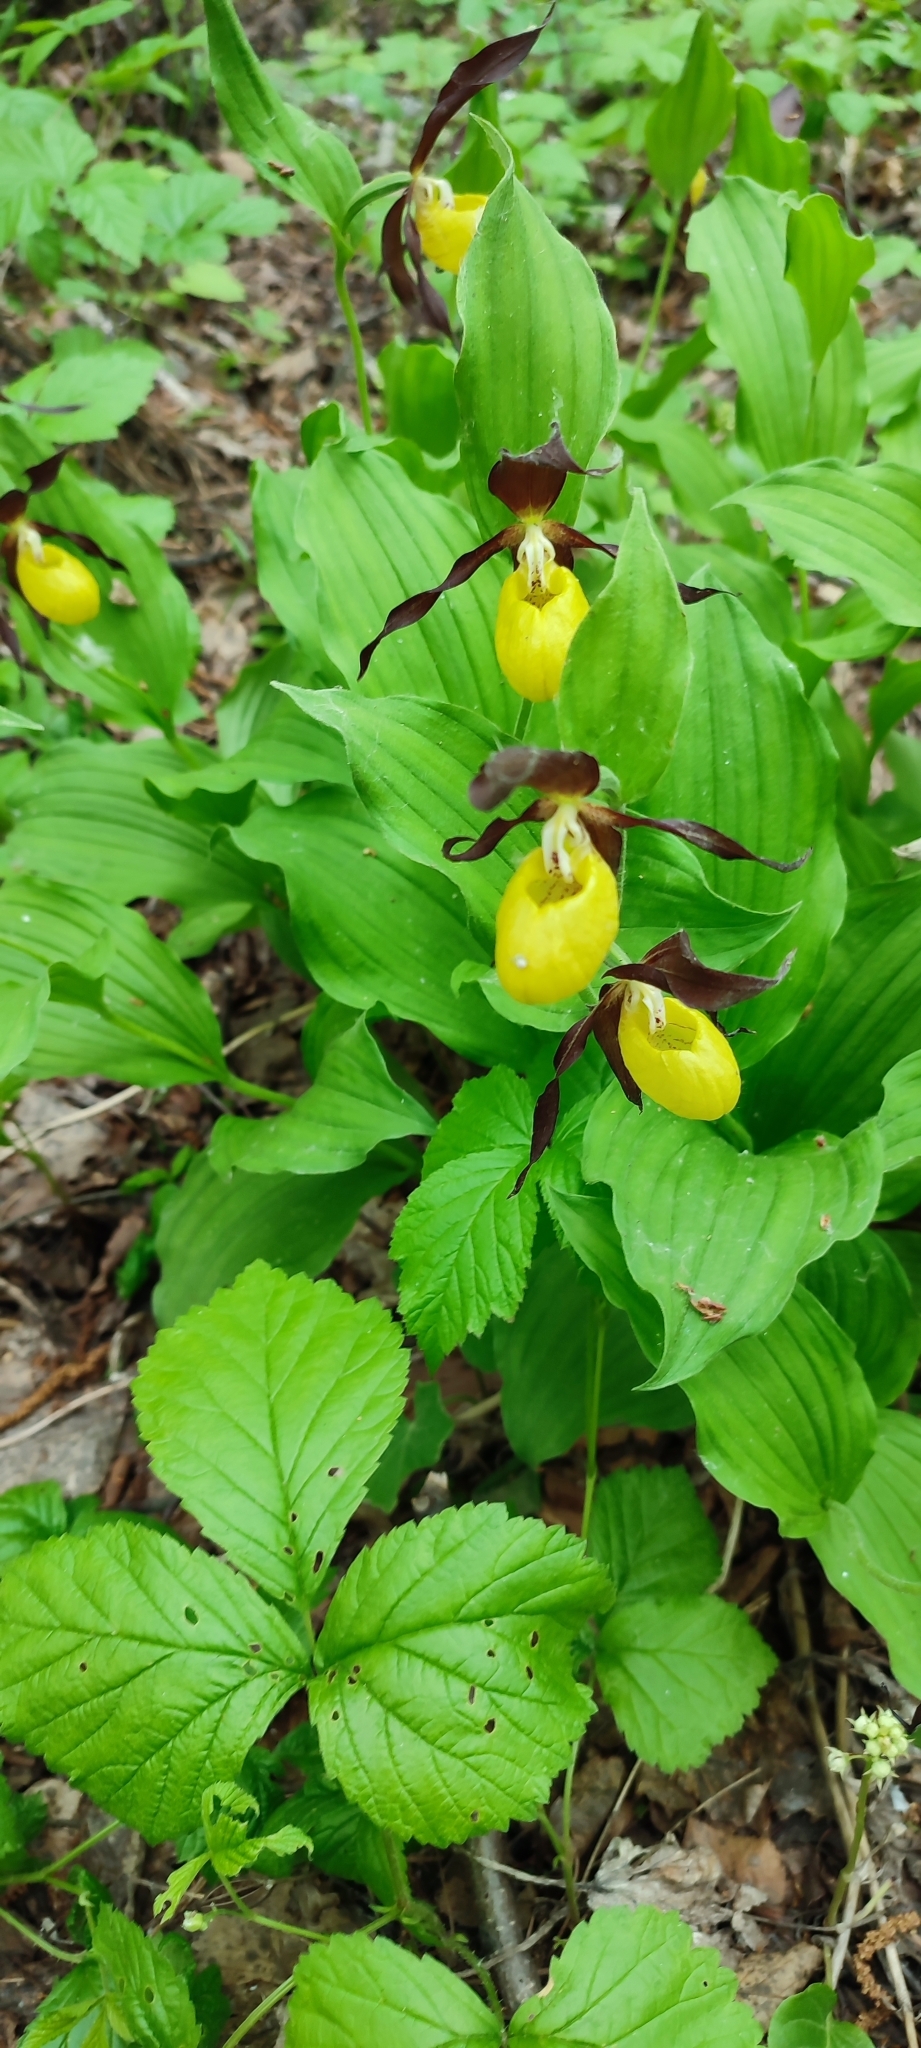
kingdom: Plantae
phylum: Tracheophyta
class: Liliopsida
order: Asparagales
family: Orchidaceae
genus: Cypripedium
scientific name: Cypripedium calceolus
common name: Lady's-slipper
